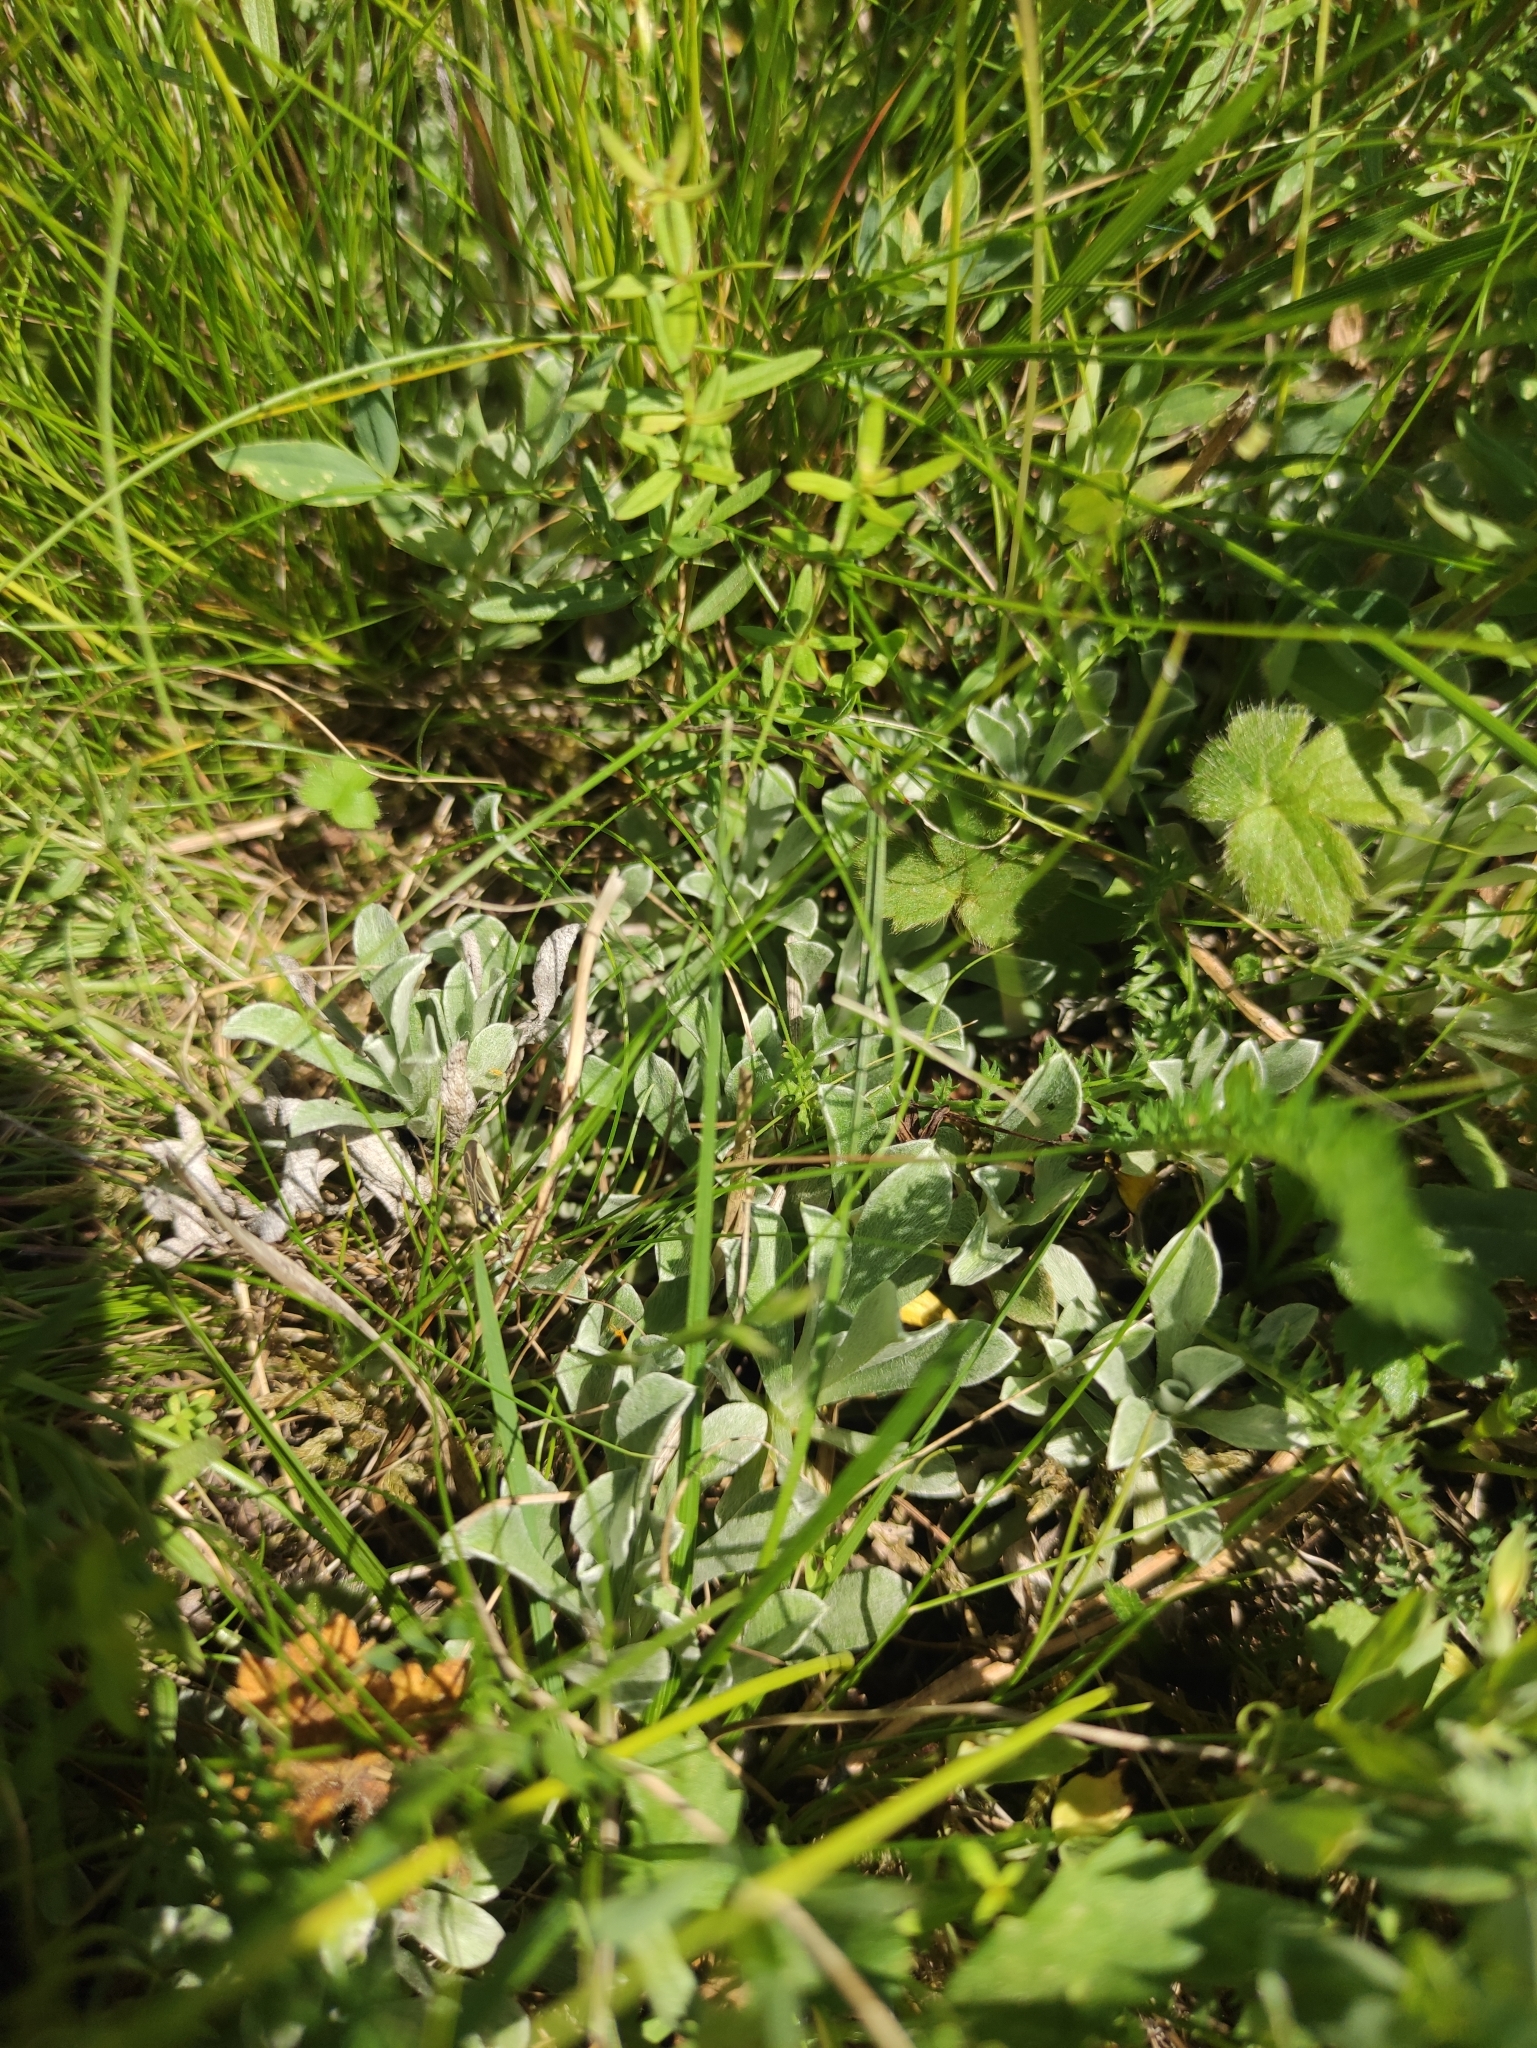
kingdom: Plantae
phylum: Tracheophyta
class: Magnoliopsida
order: Asterales
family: Asteraceae
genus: Antennaria
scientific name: Antennaria dioica
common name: Mountain everlasting
